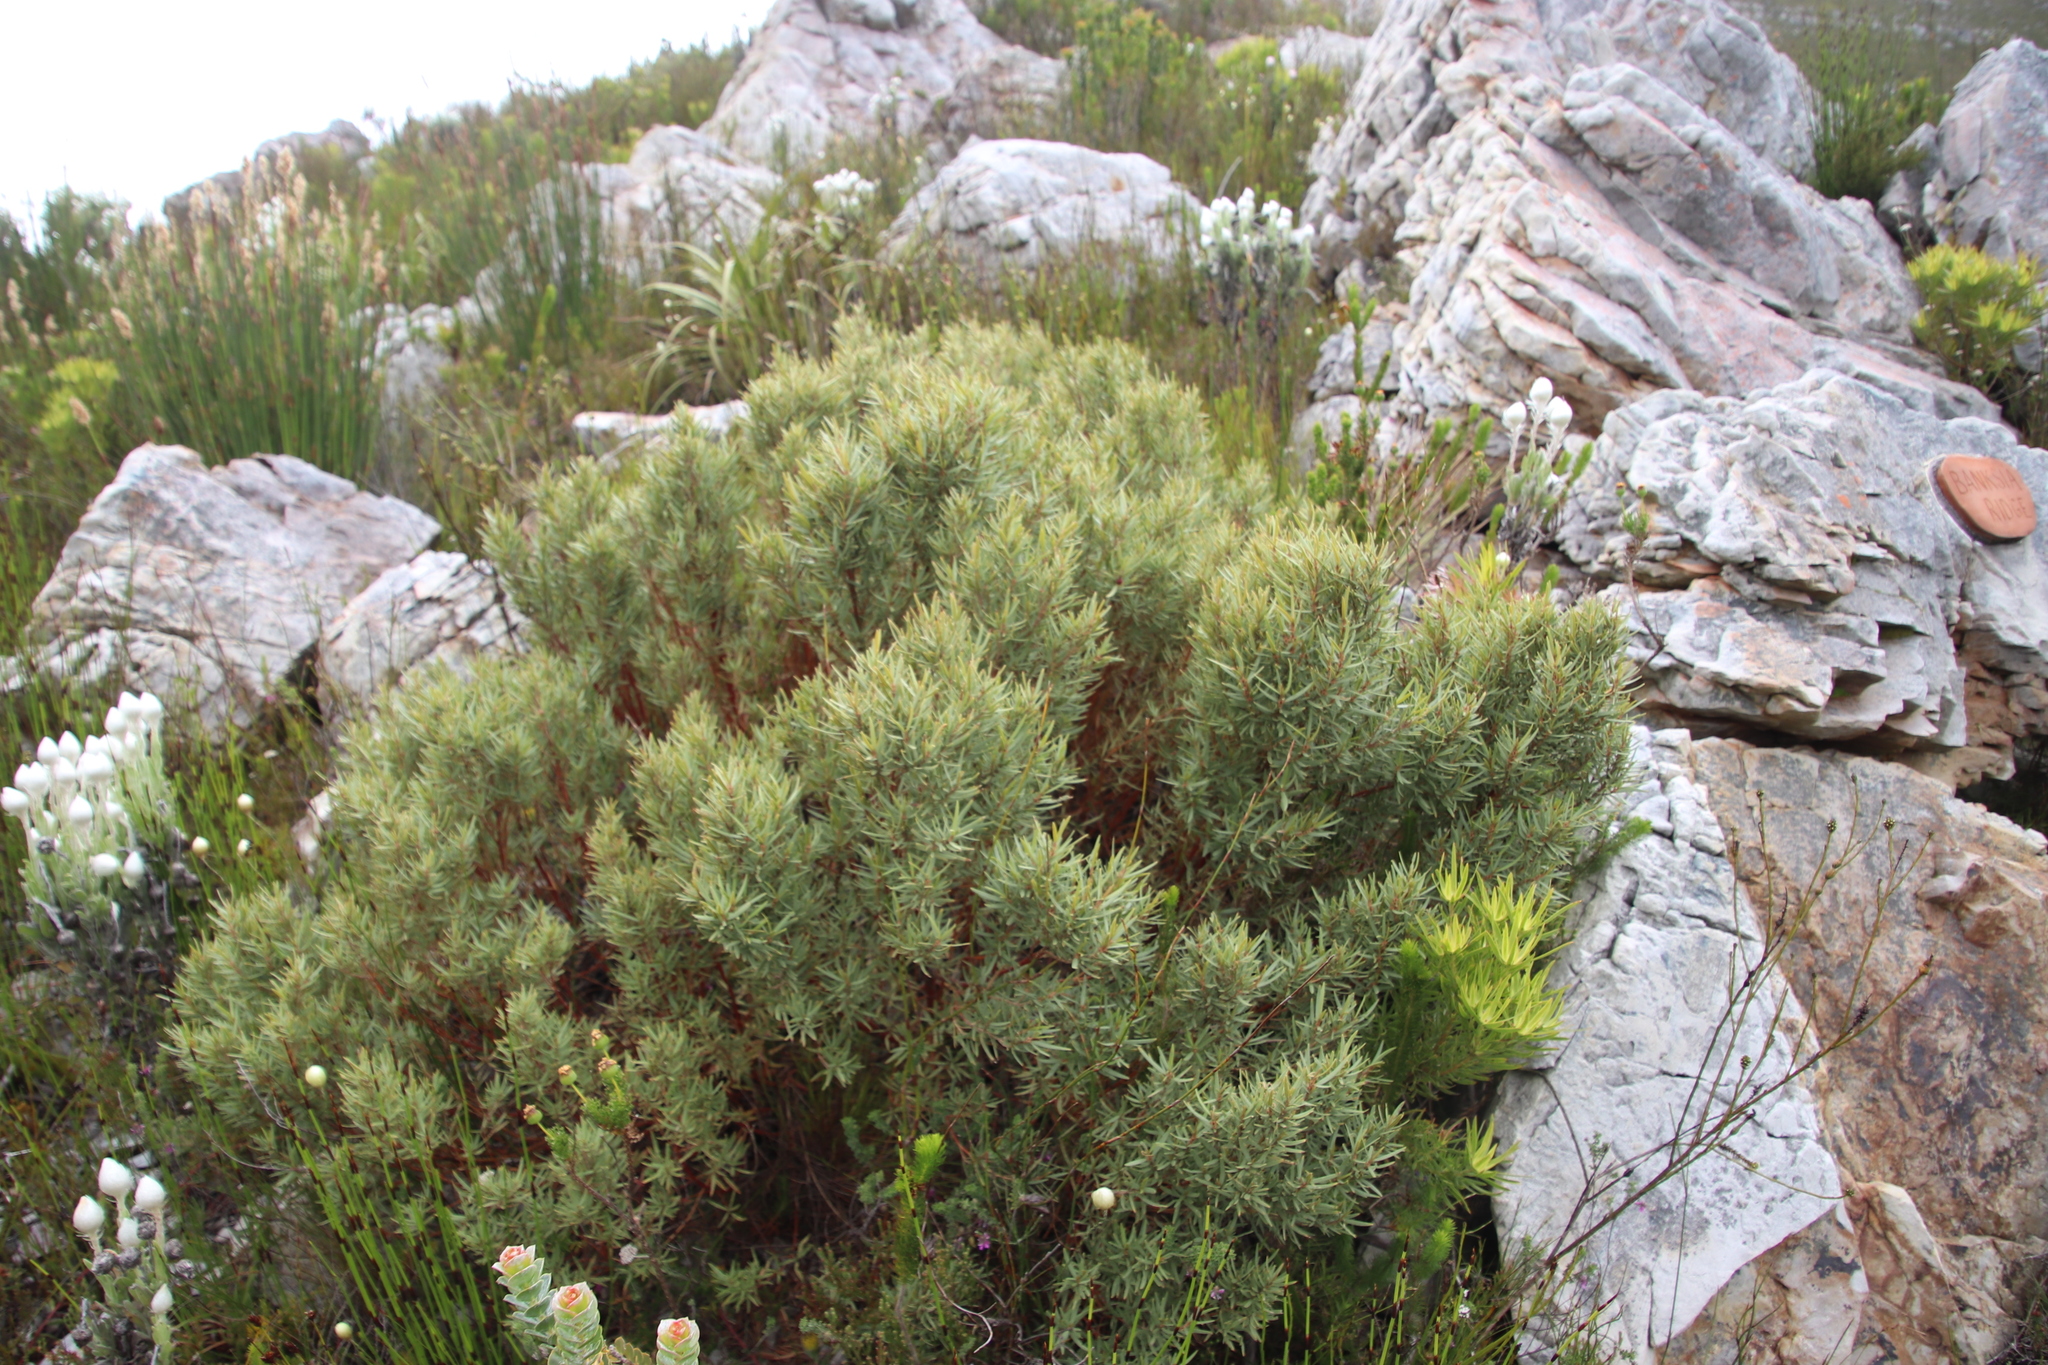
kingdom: Plantae
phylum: Tracheophyta
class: Magnoliopsida
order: Cornales
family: Grubbiaceae
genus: Grubbia
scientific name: Grubbia tomentosa
